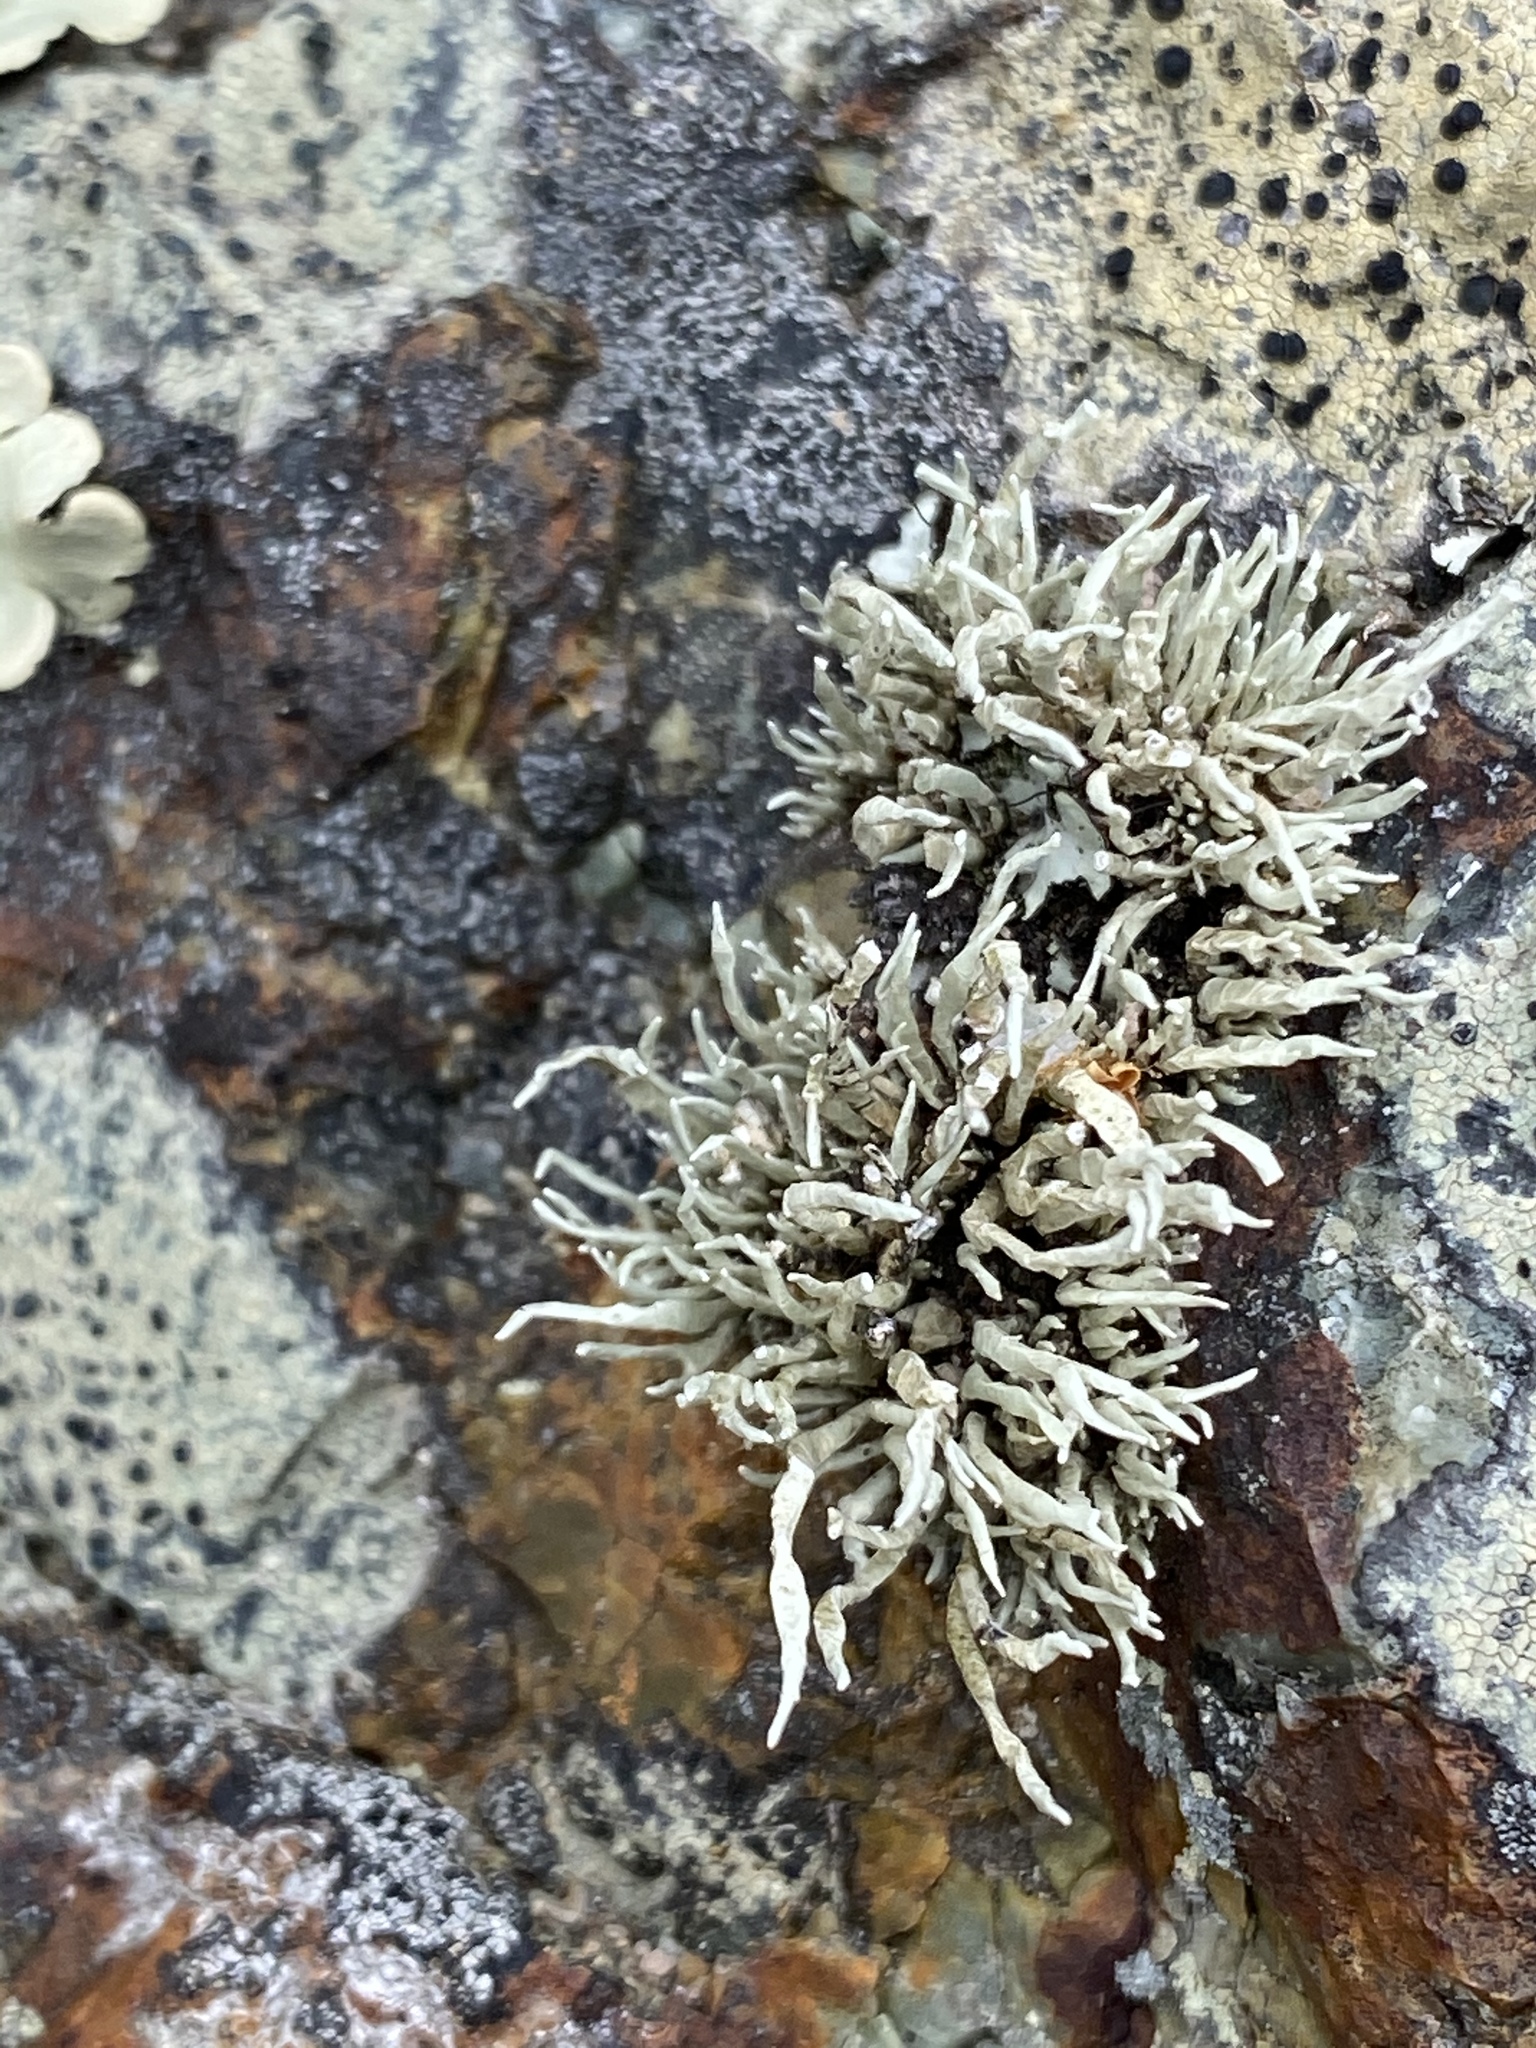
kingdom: Fungi
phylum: Ascomycota
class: Lecanoromycetes
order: Lecanorales
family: Ramalinaceae
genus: Niebla
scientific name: Niebla homalea
